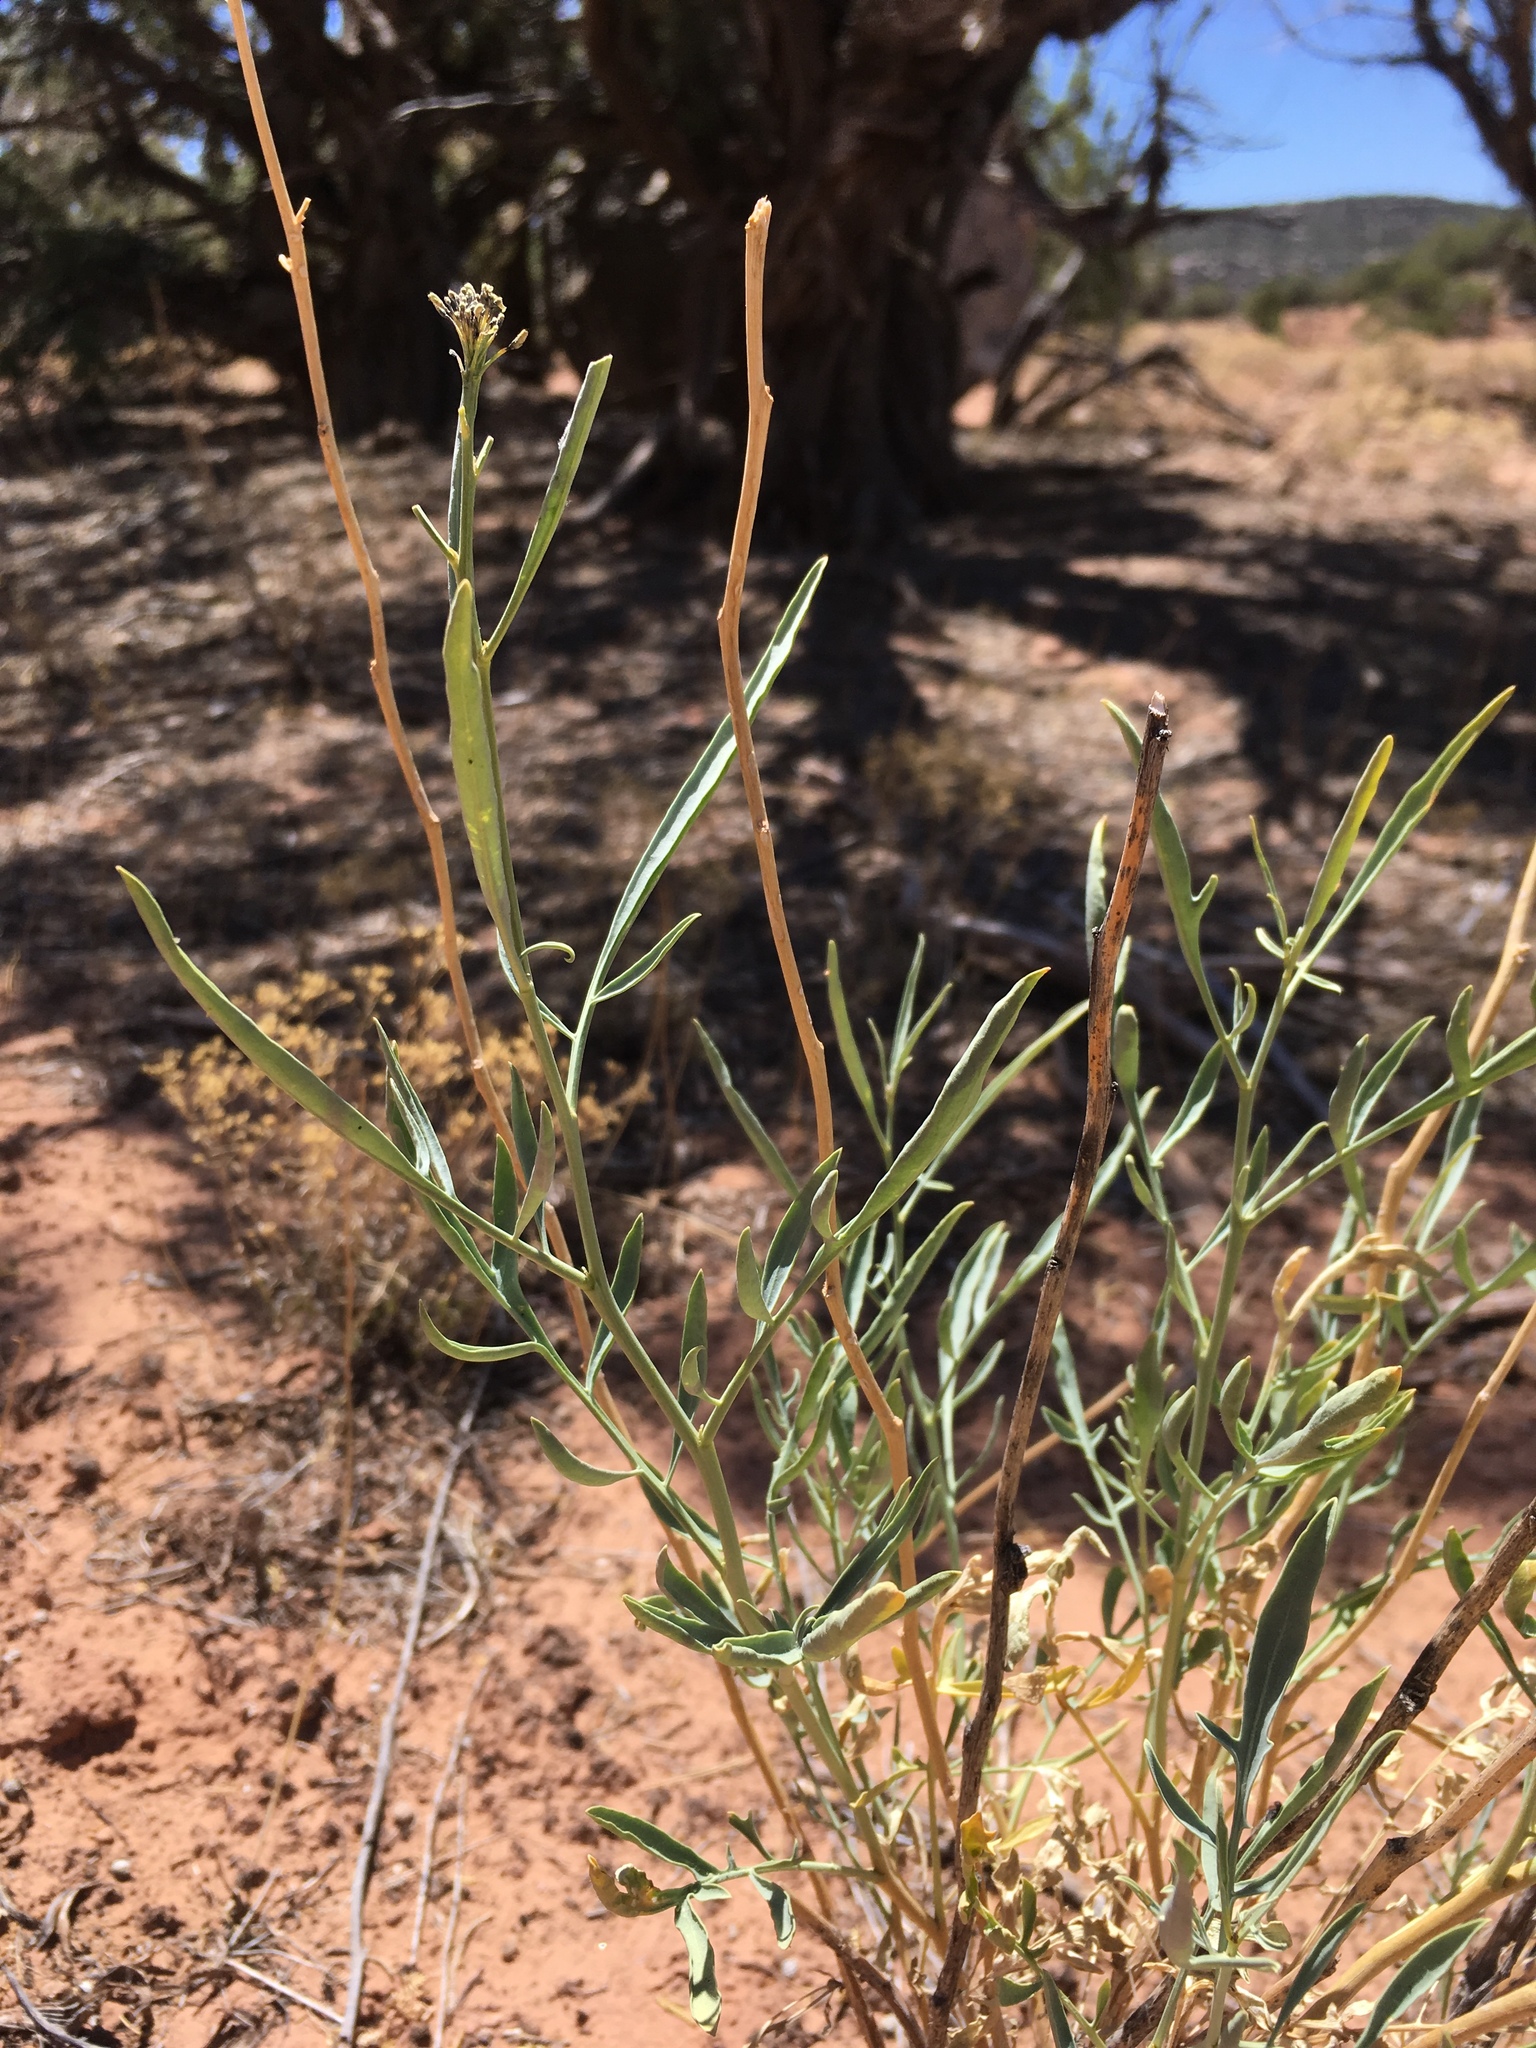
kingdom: Plantae
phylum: Tracheophyta
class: Magnoliopsida
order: Brassicales
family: Brassicaceae
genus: Stanleya
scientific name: Stanleya pinnata
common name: Prince's-plume
